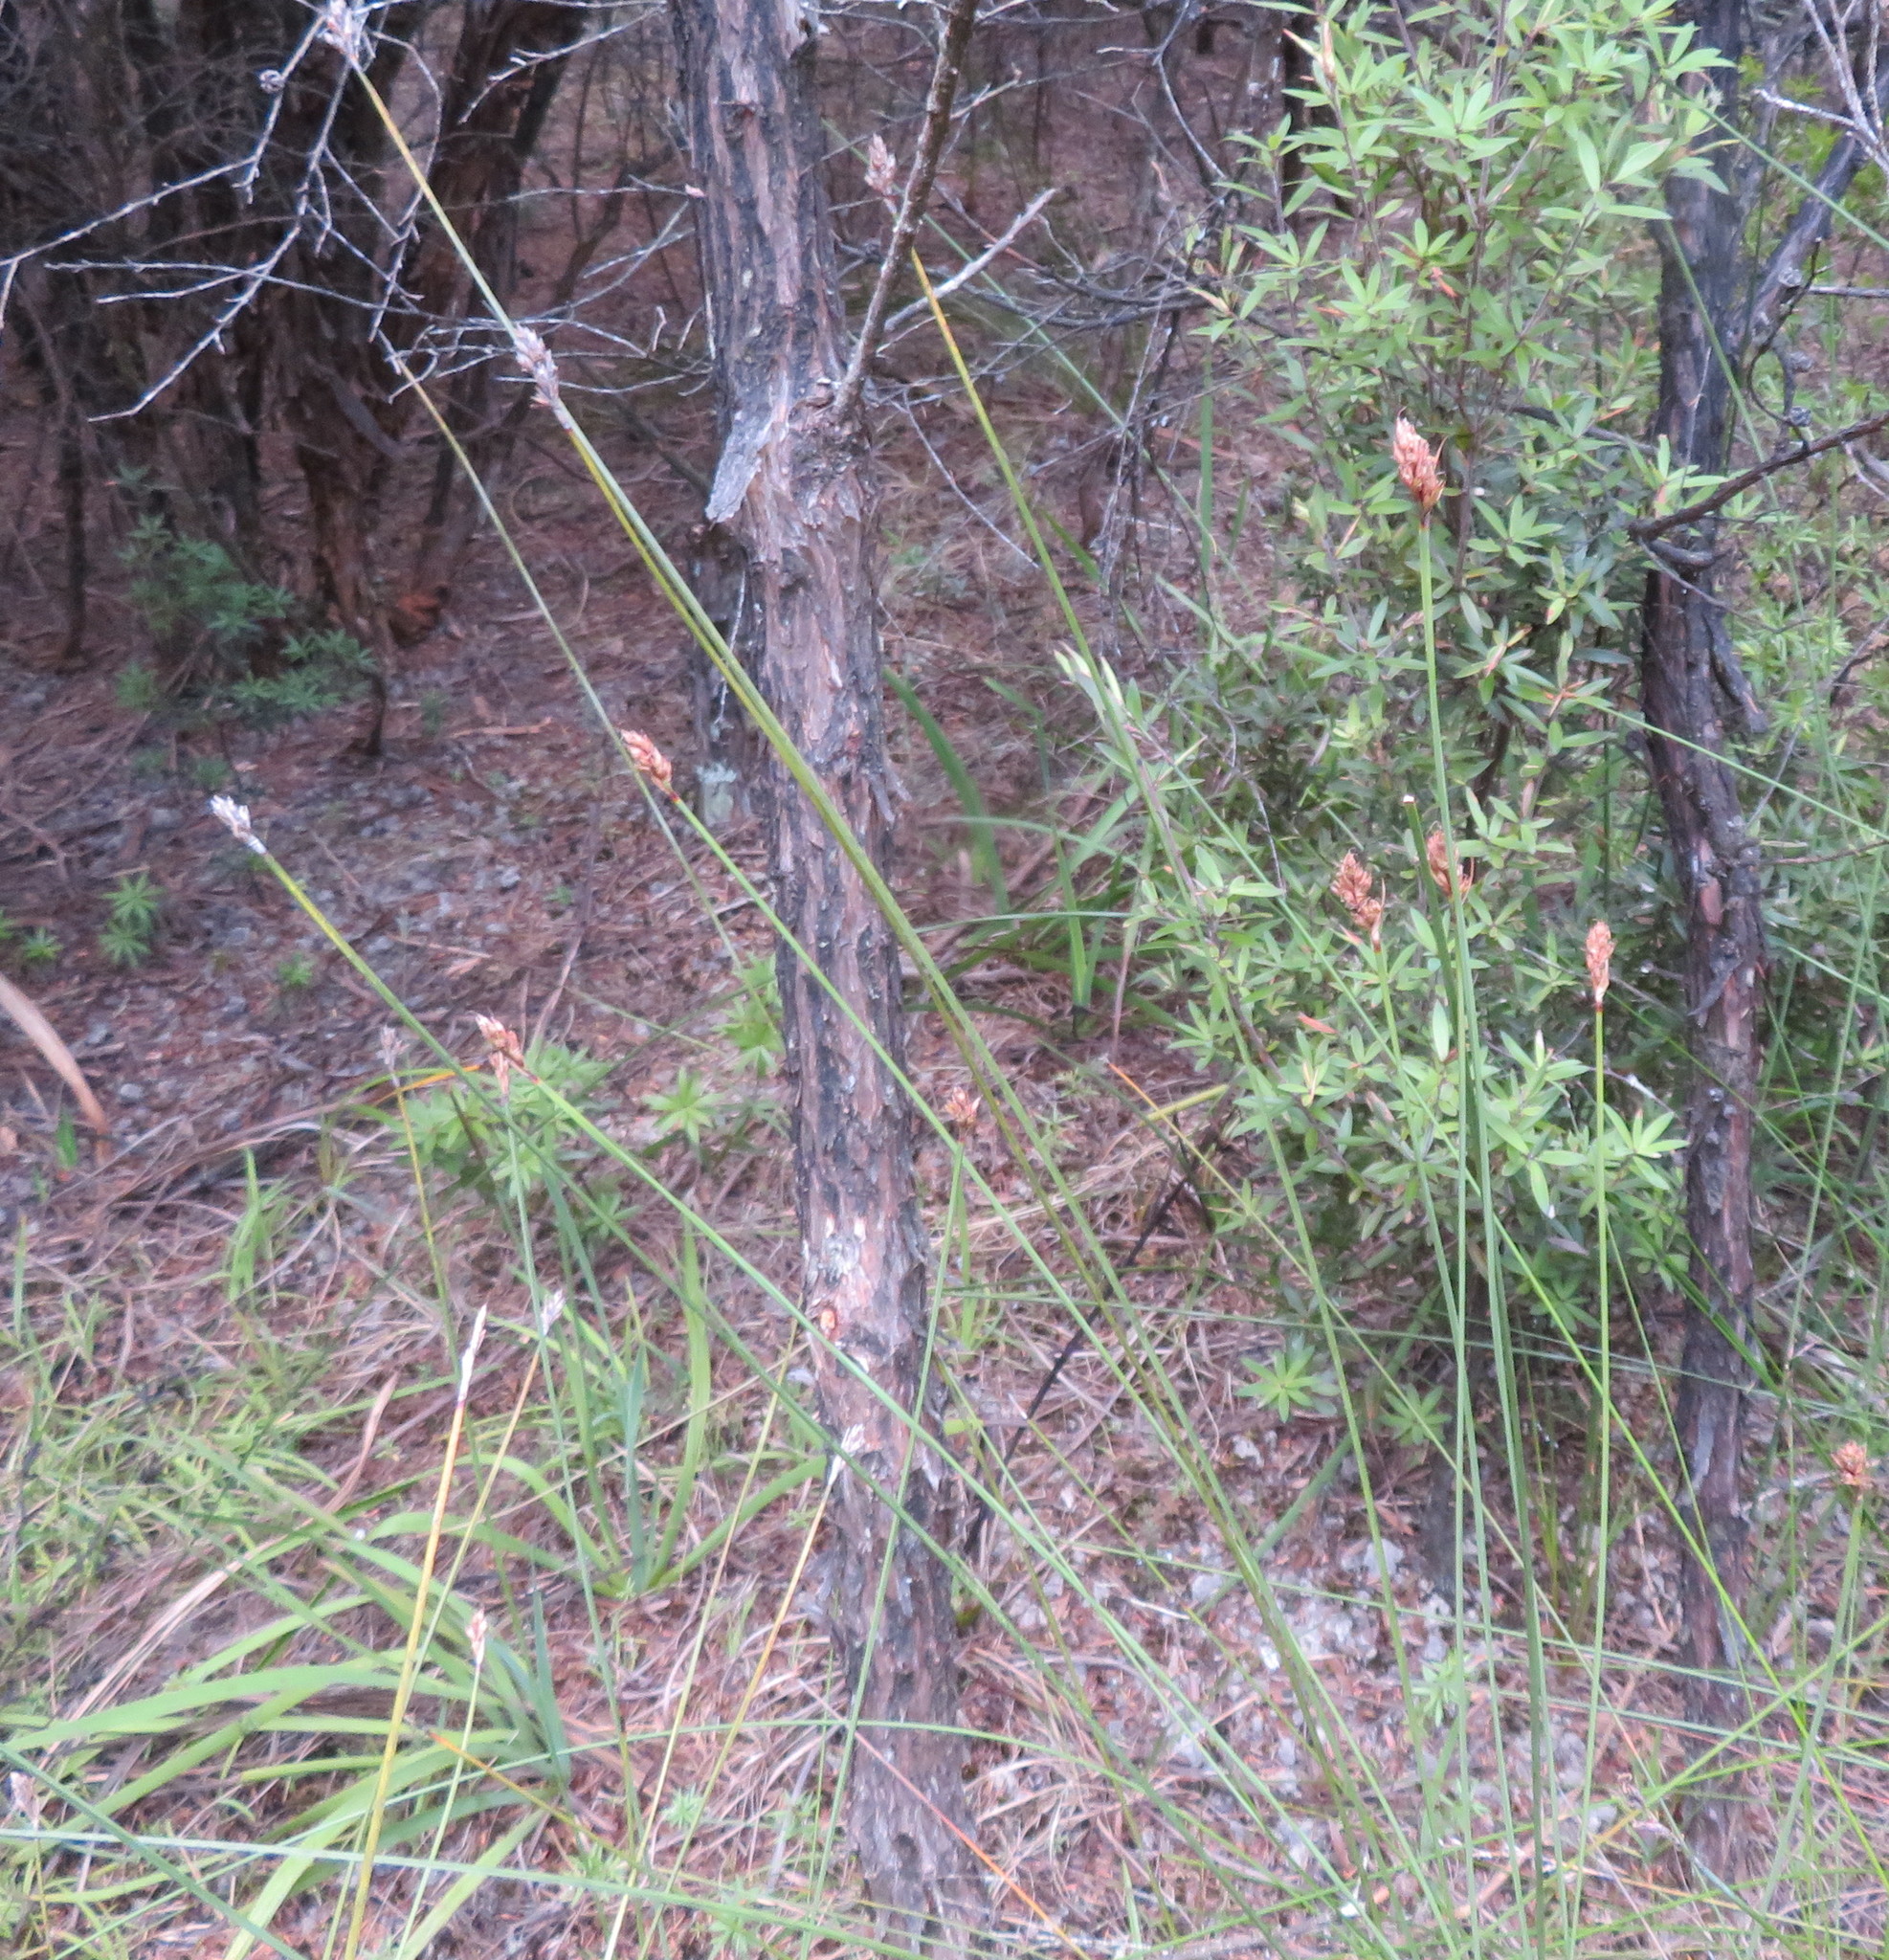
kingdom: Plantae
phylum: Tracheophyta
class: Liliopsida
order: Poales
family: Cyperaceae
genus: Lepidosperma
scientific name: Lepidosperma australe
